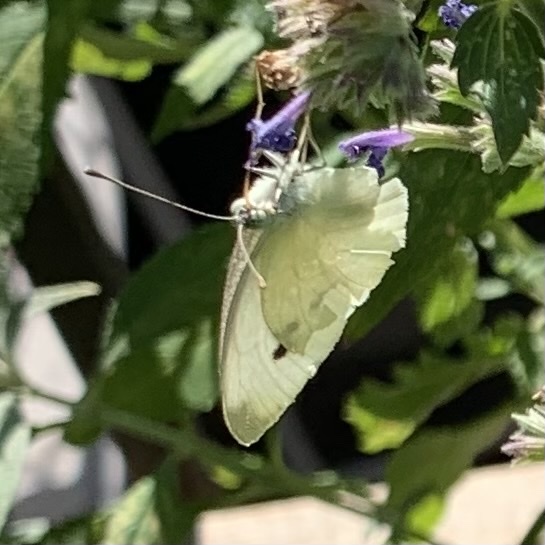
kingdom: Animalia
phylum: Arthropoda
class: Insecta
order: Lepidoptera
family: Pieridae
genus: Pieris
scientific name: Pieris rapae
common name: Small white
